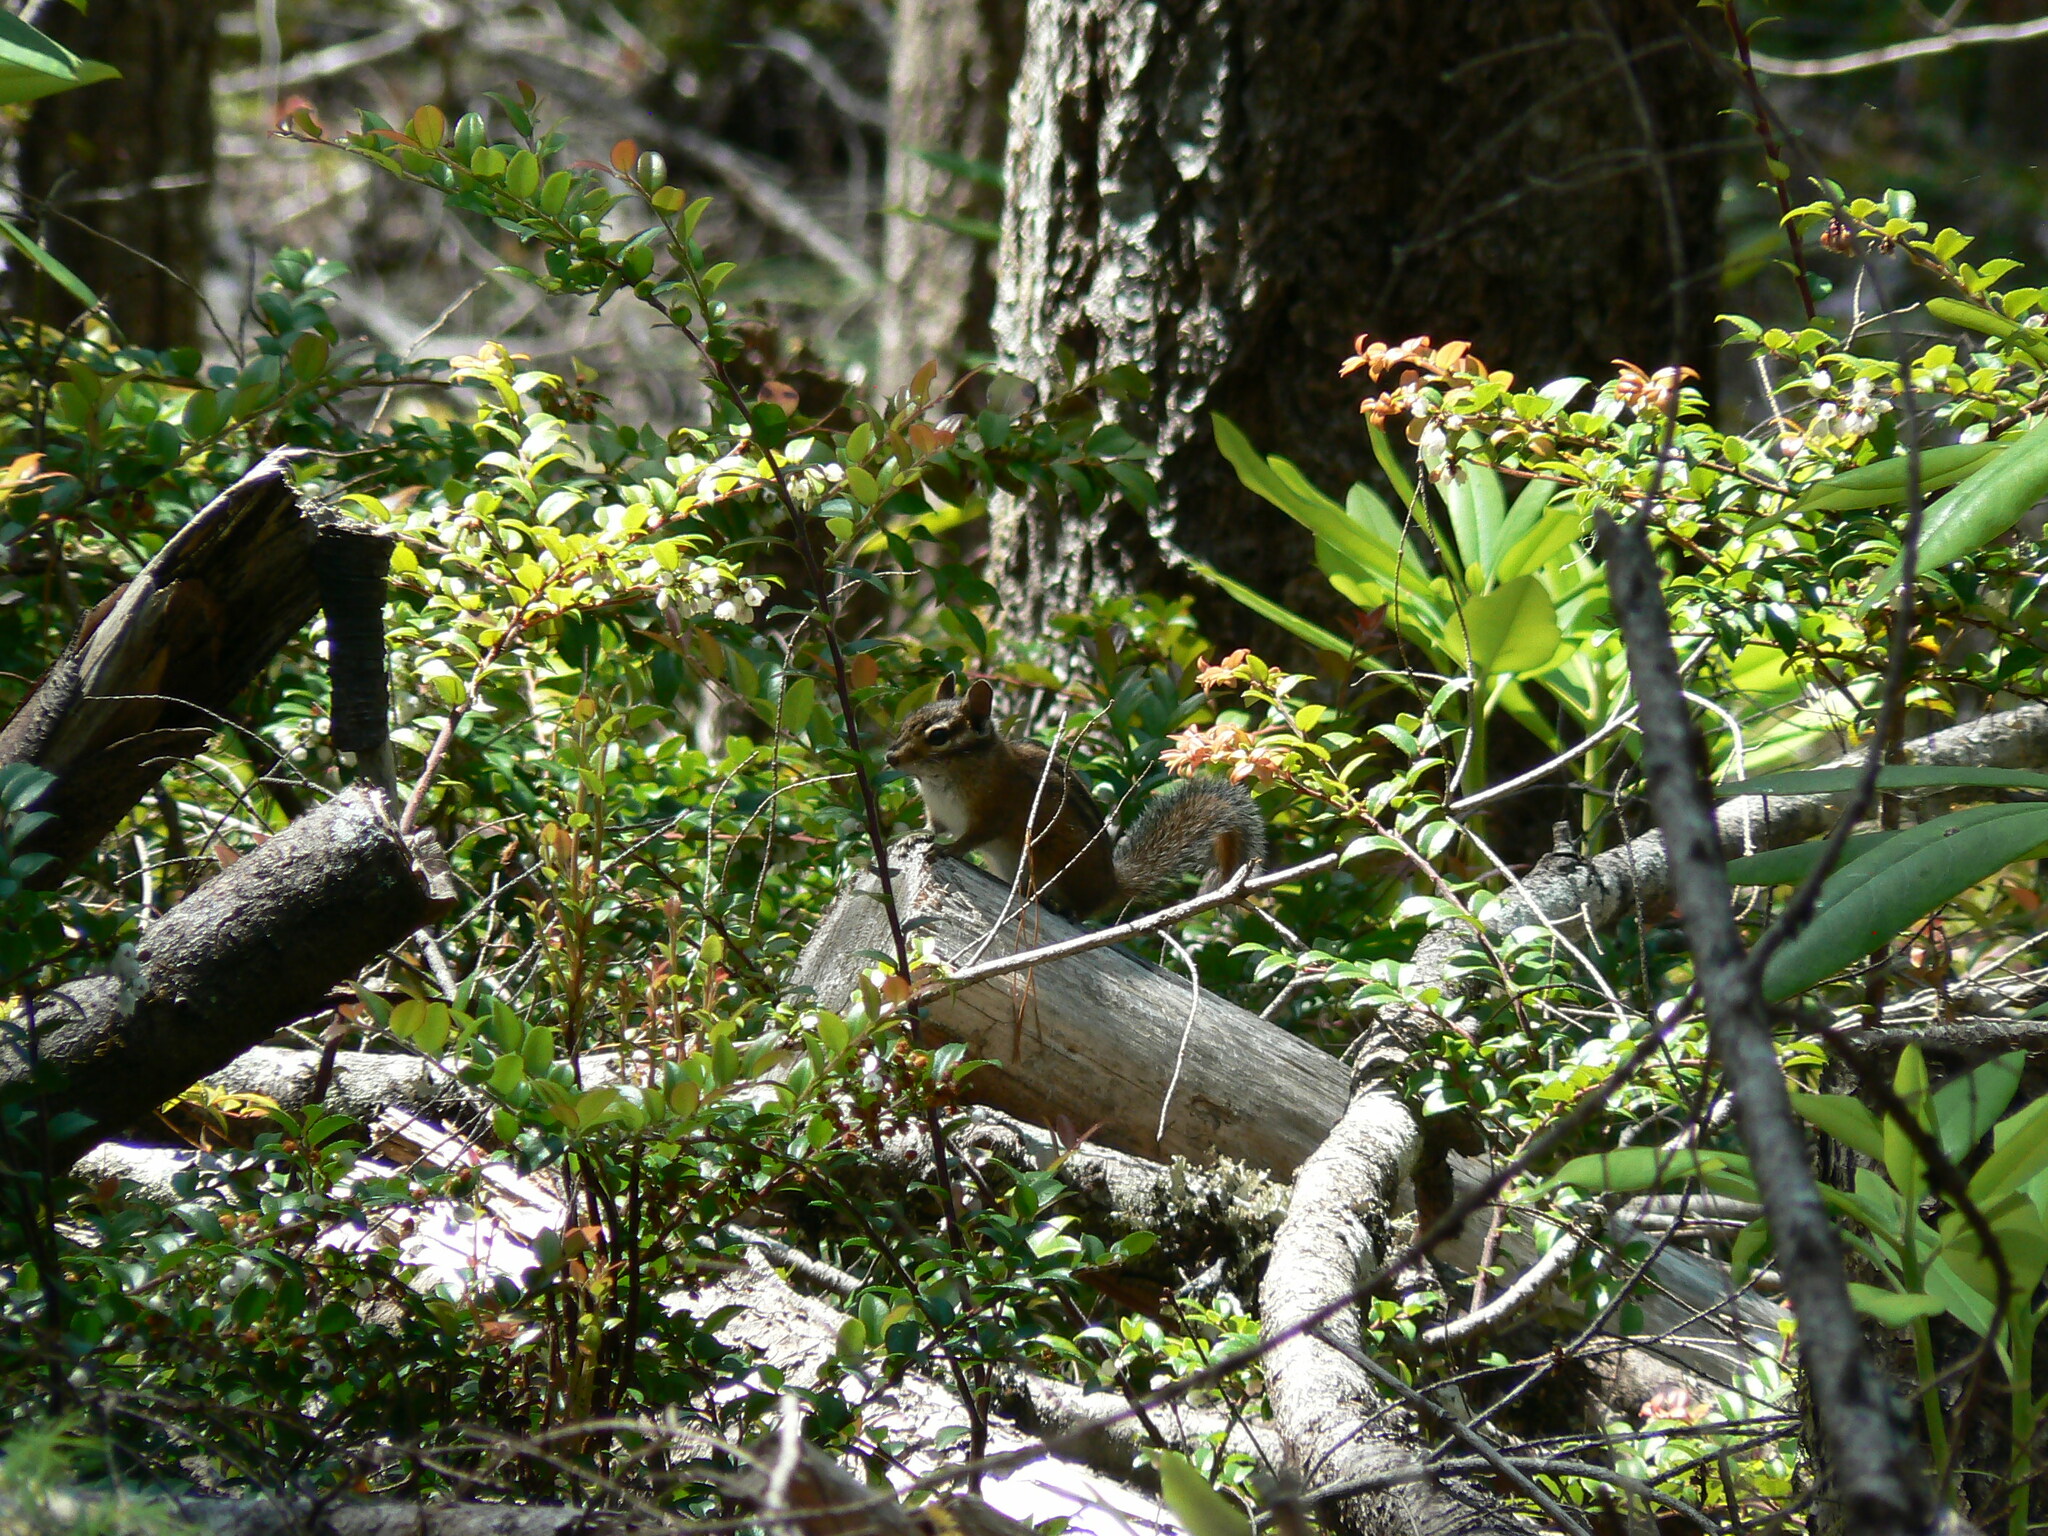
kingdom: Animalia
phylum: Chordata
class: Mammalia
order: Rodentia
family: Sciuridae
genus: Tamias
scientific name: Tamias townsendii
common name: Townsend's chipmunk
